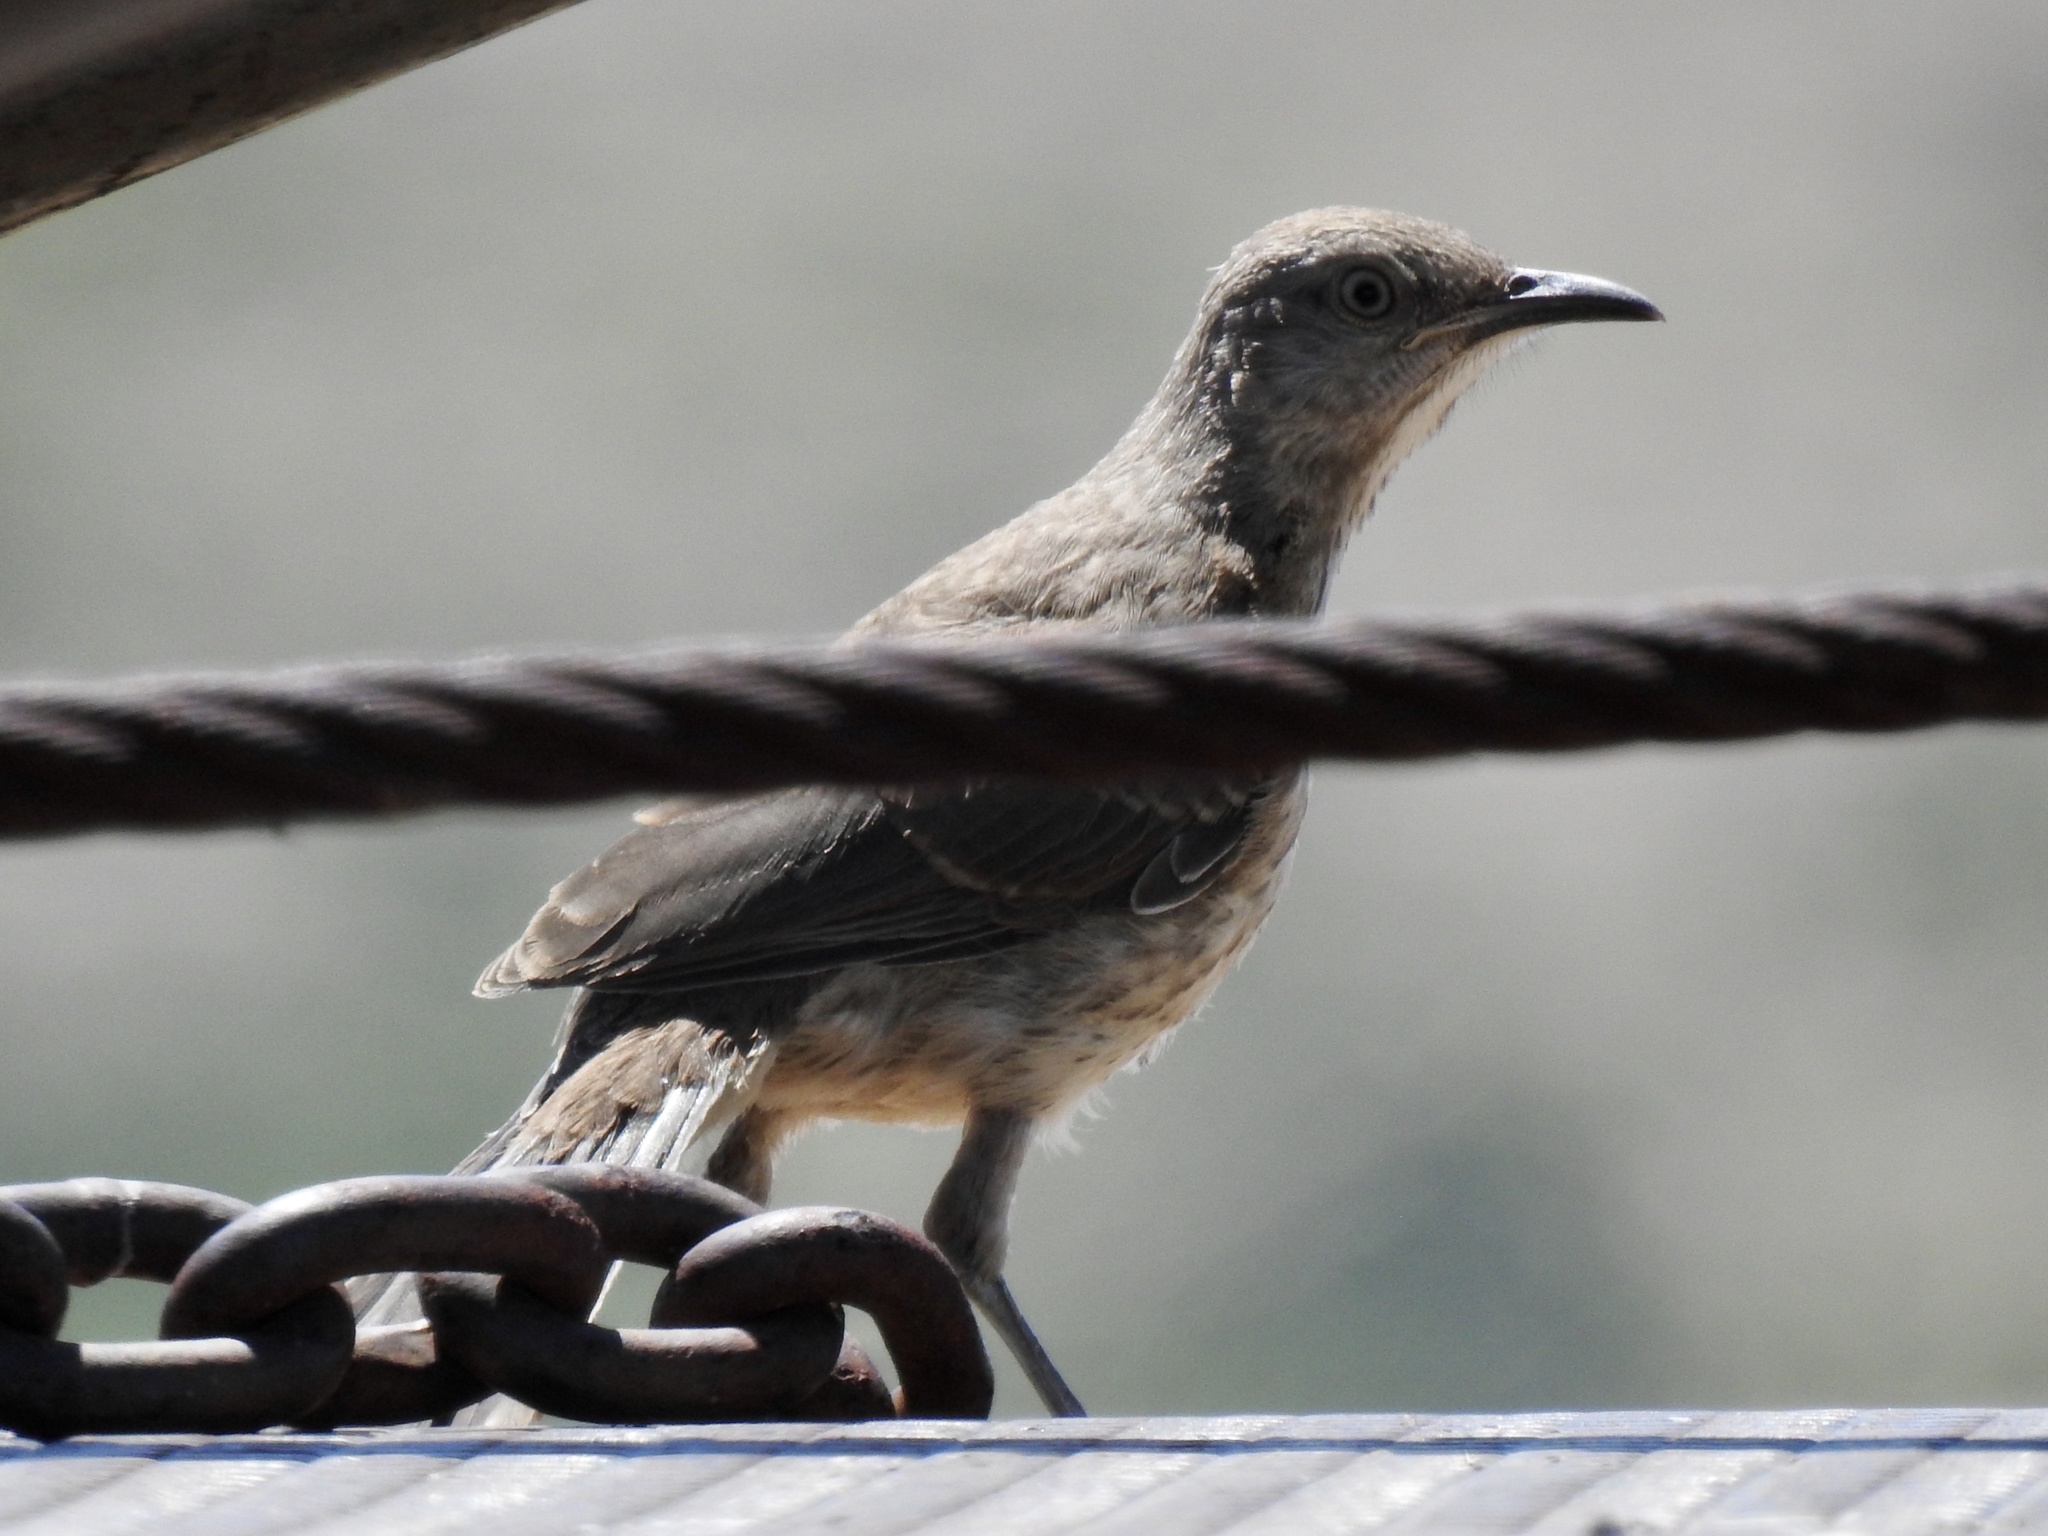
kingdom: Animalia
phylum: Chordata
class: Aves
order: Passeriformes
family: Mimidae
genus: Toxostoma
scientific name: Toxostoma curvirostre
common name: Curve-billed thrasher
